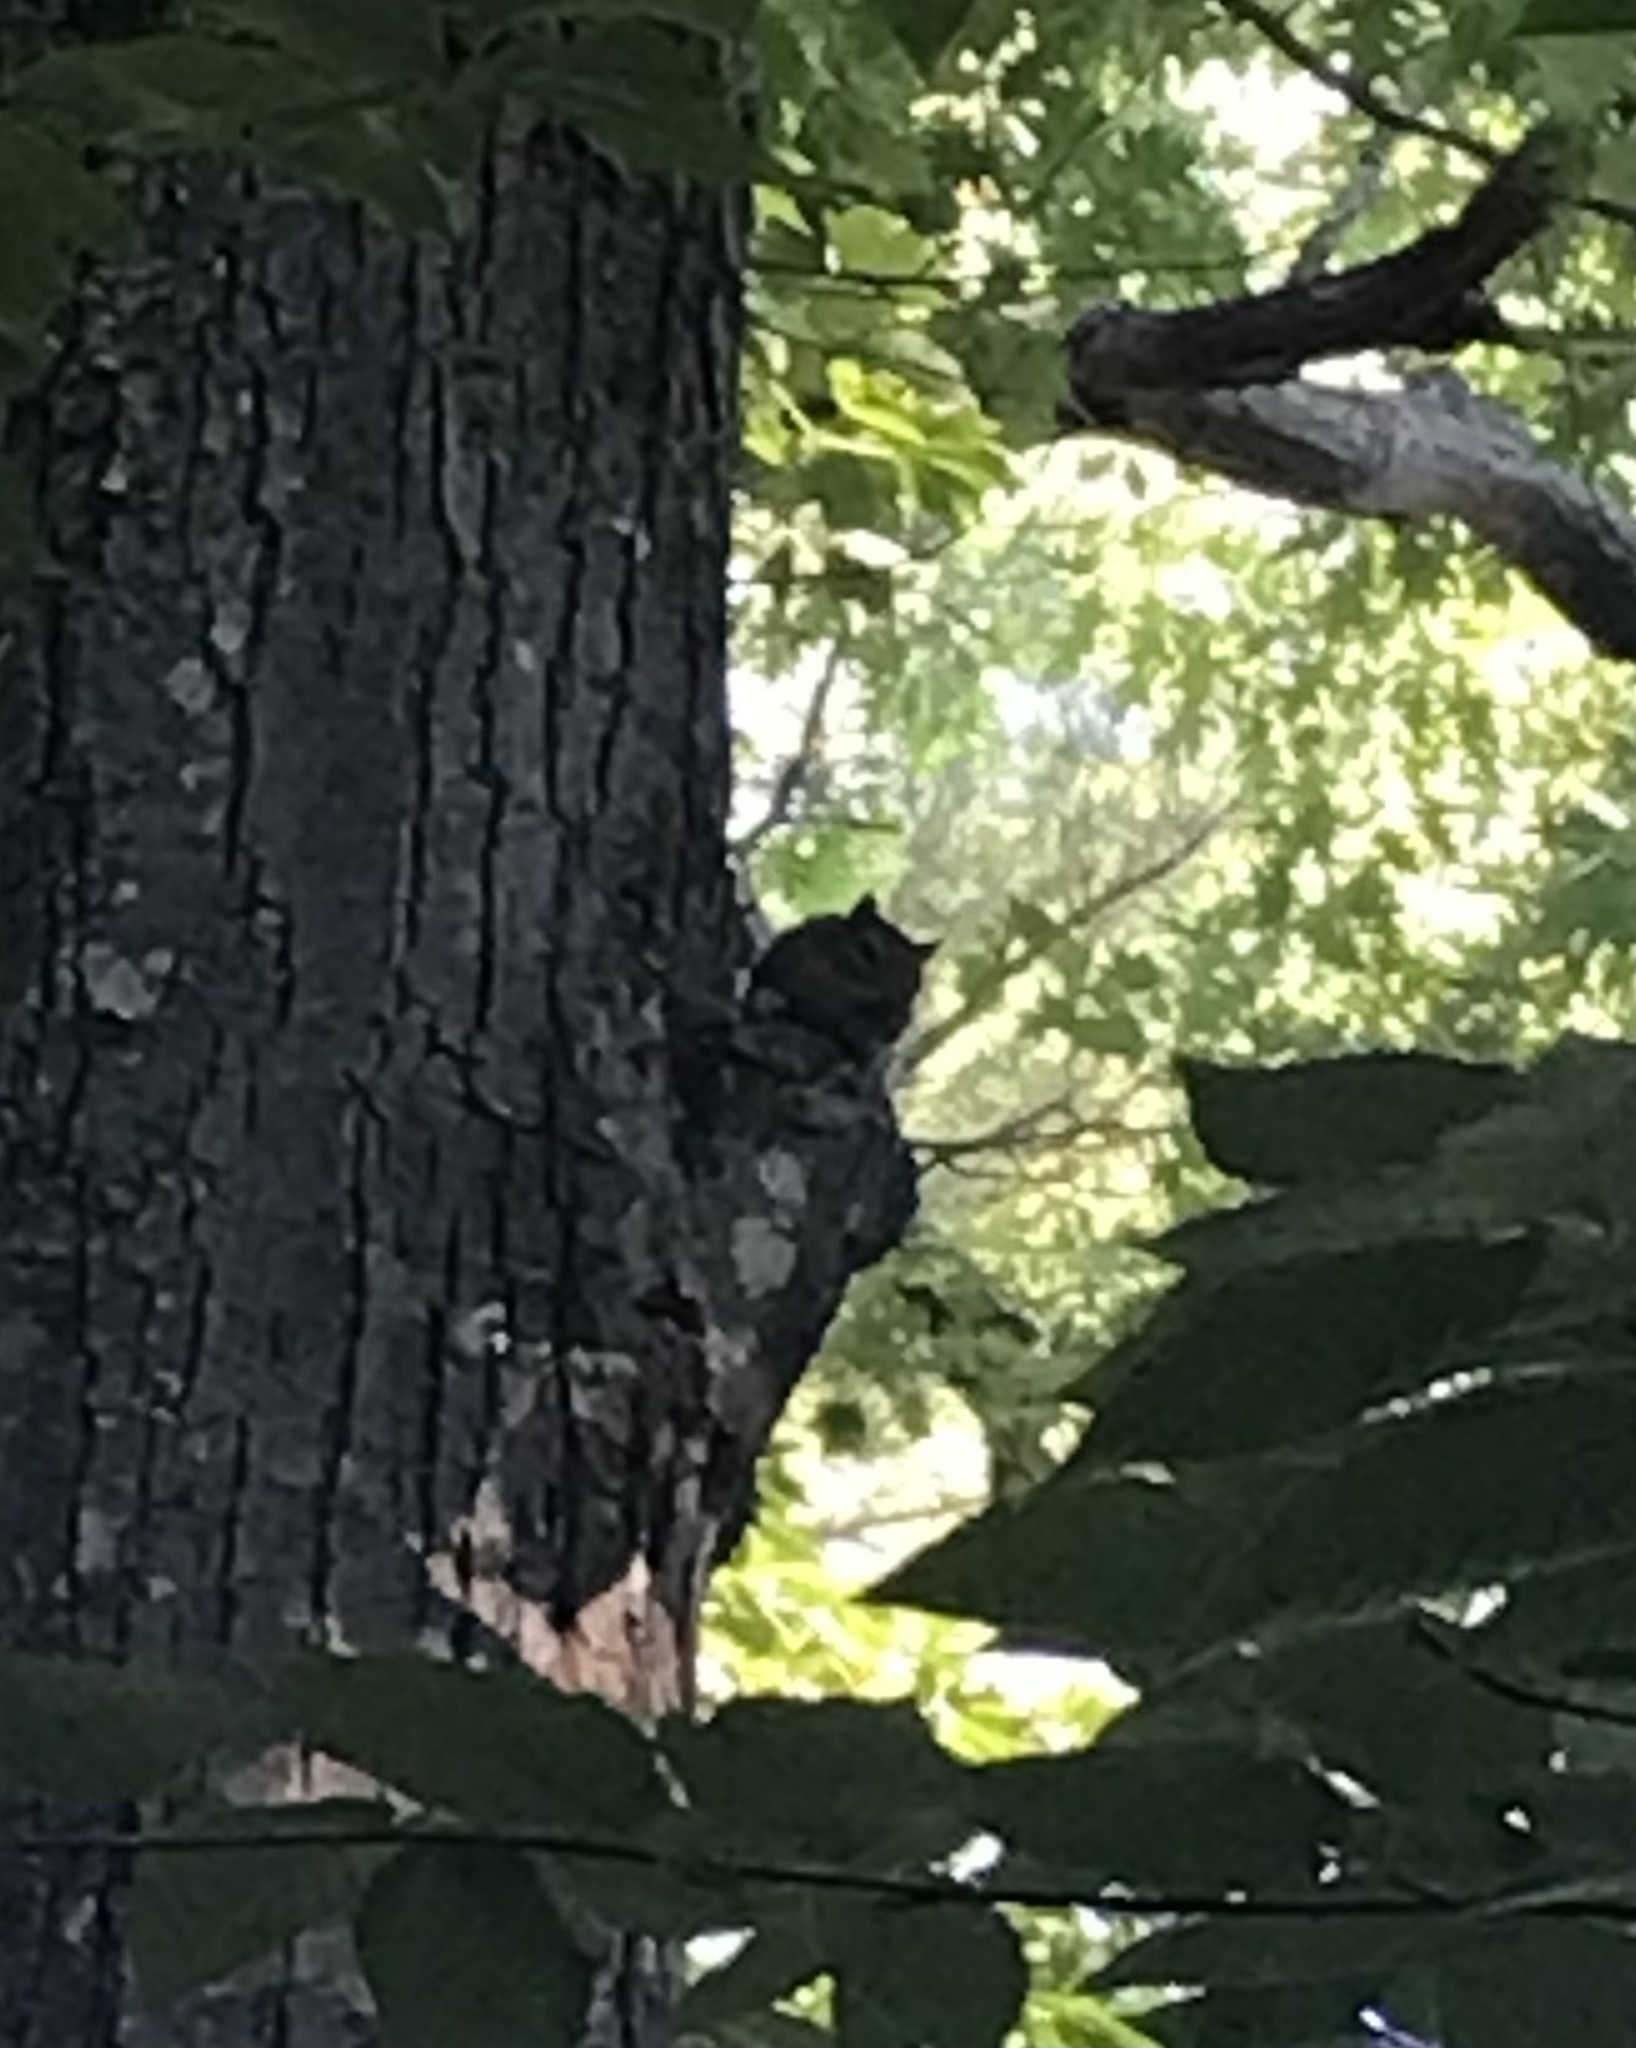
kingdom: Animalia
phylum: Chordata
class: Mammalia
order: Rodentia
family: Sciuridae
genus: Tamias
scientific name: Tamias striatus
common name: Eastern chipmunk
